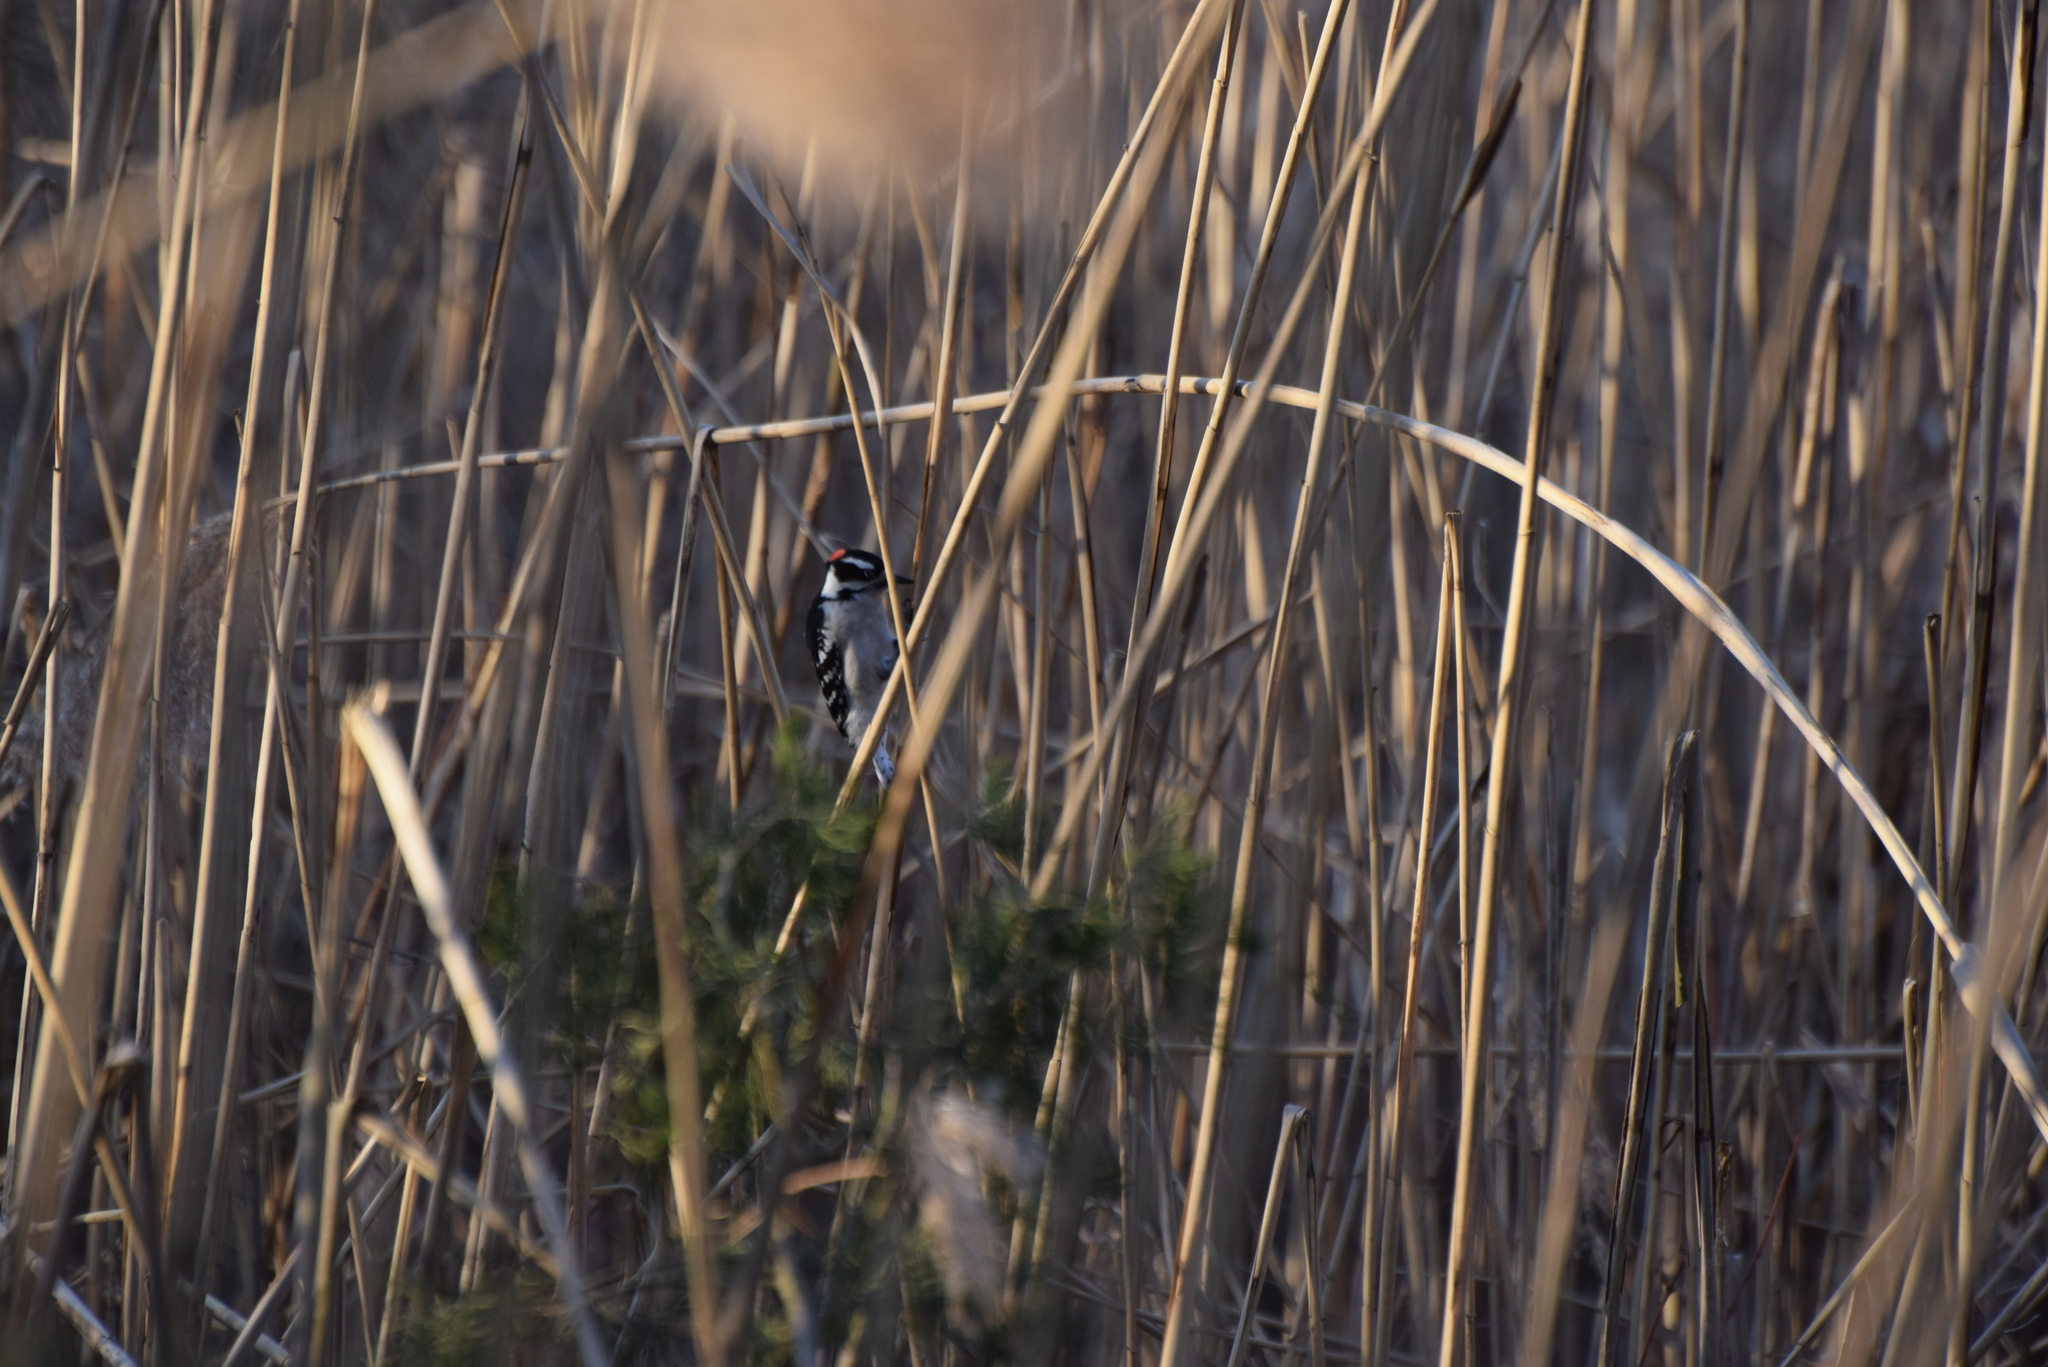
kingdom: Animalia
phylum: Chordata
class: Aves
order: Piciformes
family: Picidae
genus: Dryobates
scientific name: Dryobates pubescens
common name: Downy woodpecker
